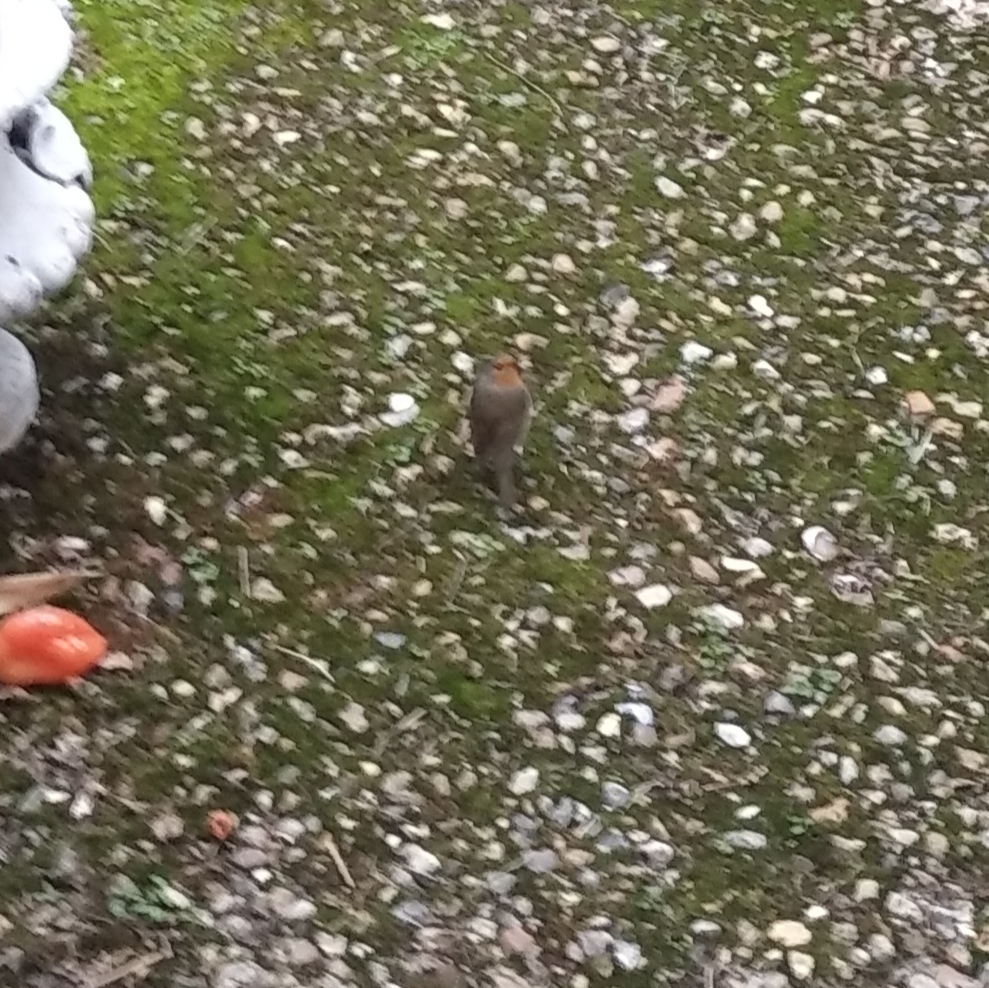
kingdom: Animalia
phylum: Chordata
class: Aves
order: Passeriformes
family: Muscicapidae
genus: Erithacus
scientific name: Erithacus rubecula
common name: European robin
